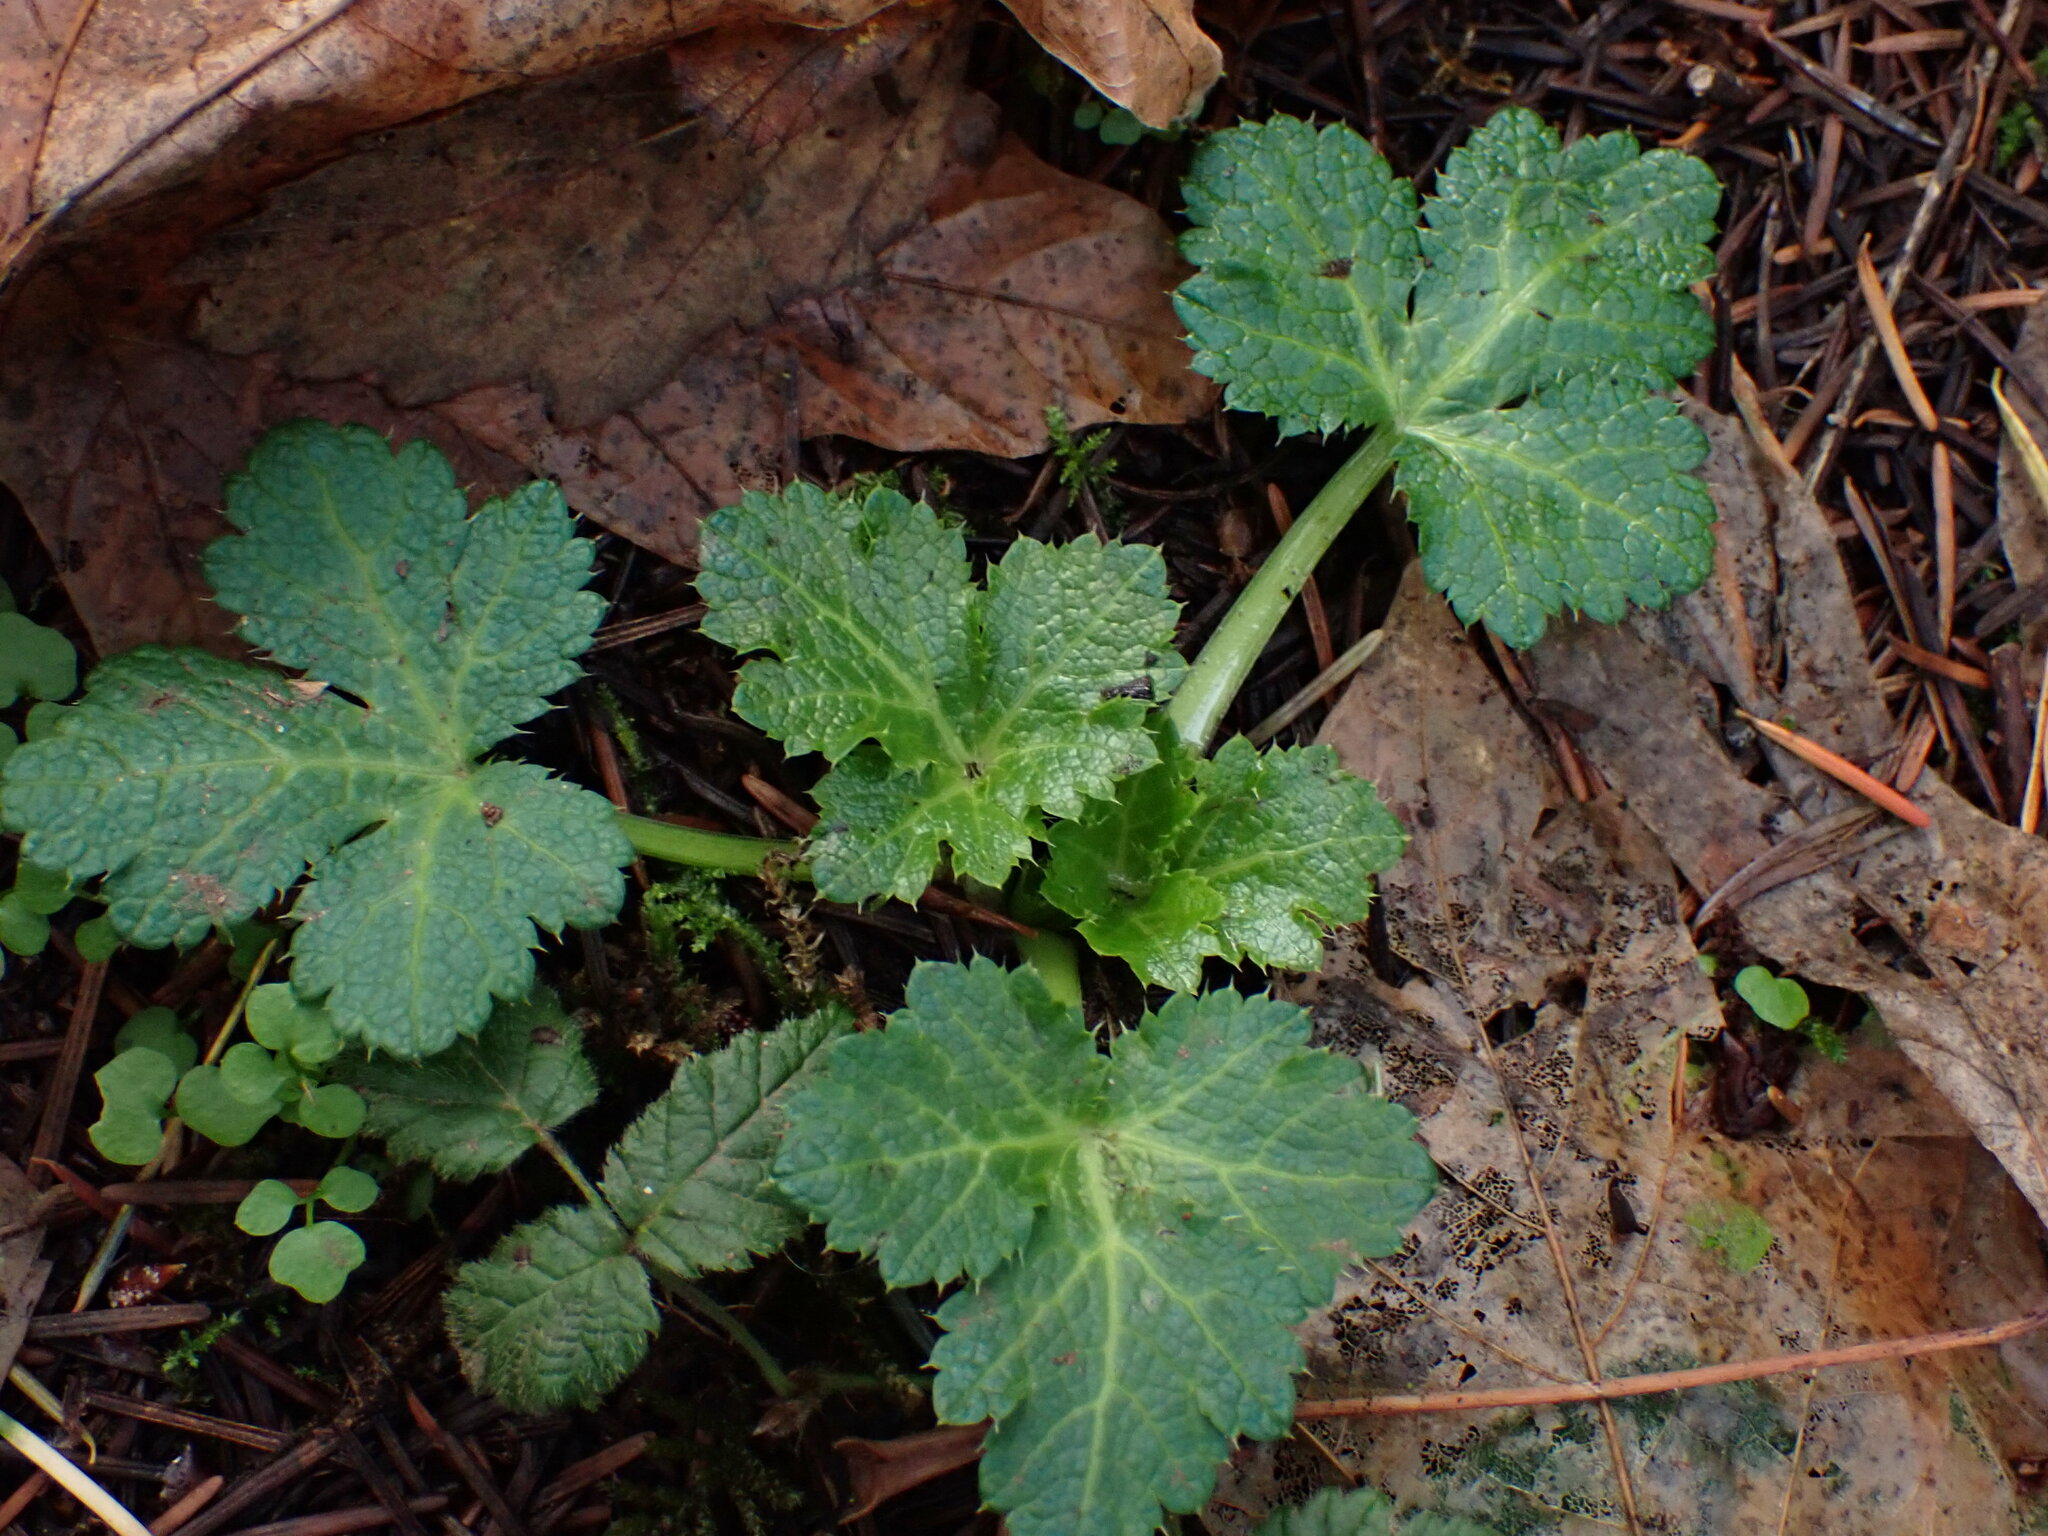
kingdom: Plantae
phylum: Tracheophyta
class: Magnoliopsida
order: Apiales
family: Apiaceae
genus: Sanicula
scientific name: Sanicula crassicaulis
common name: Western snakeroot
